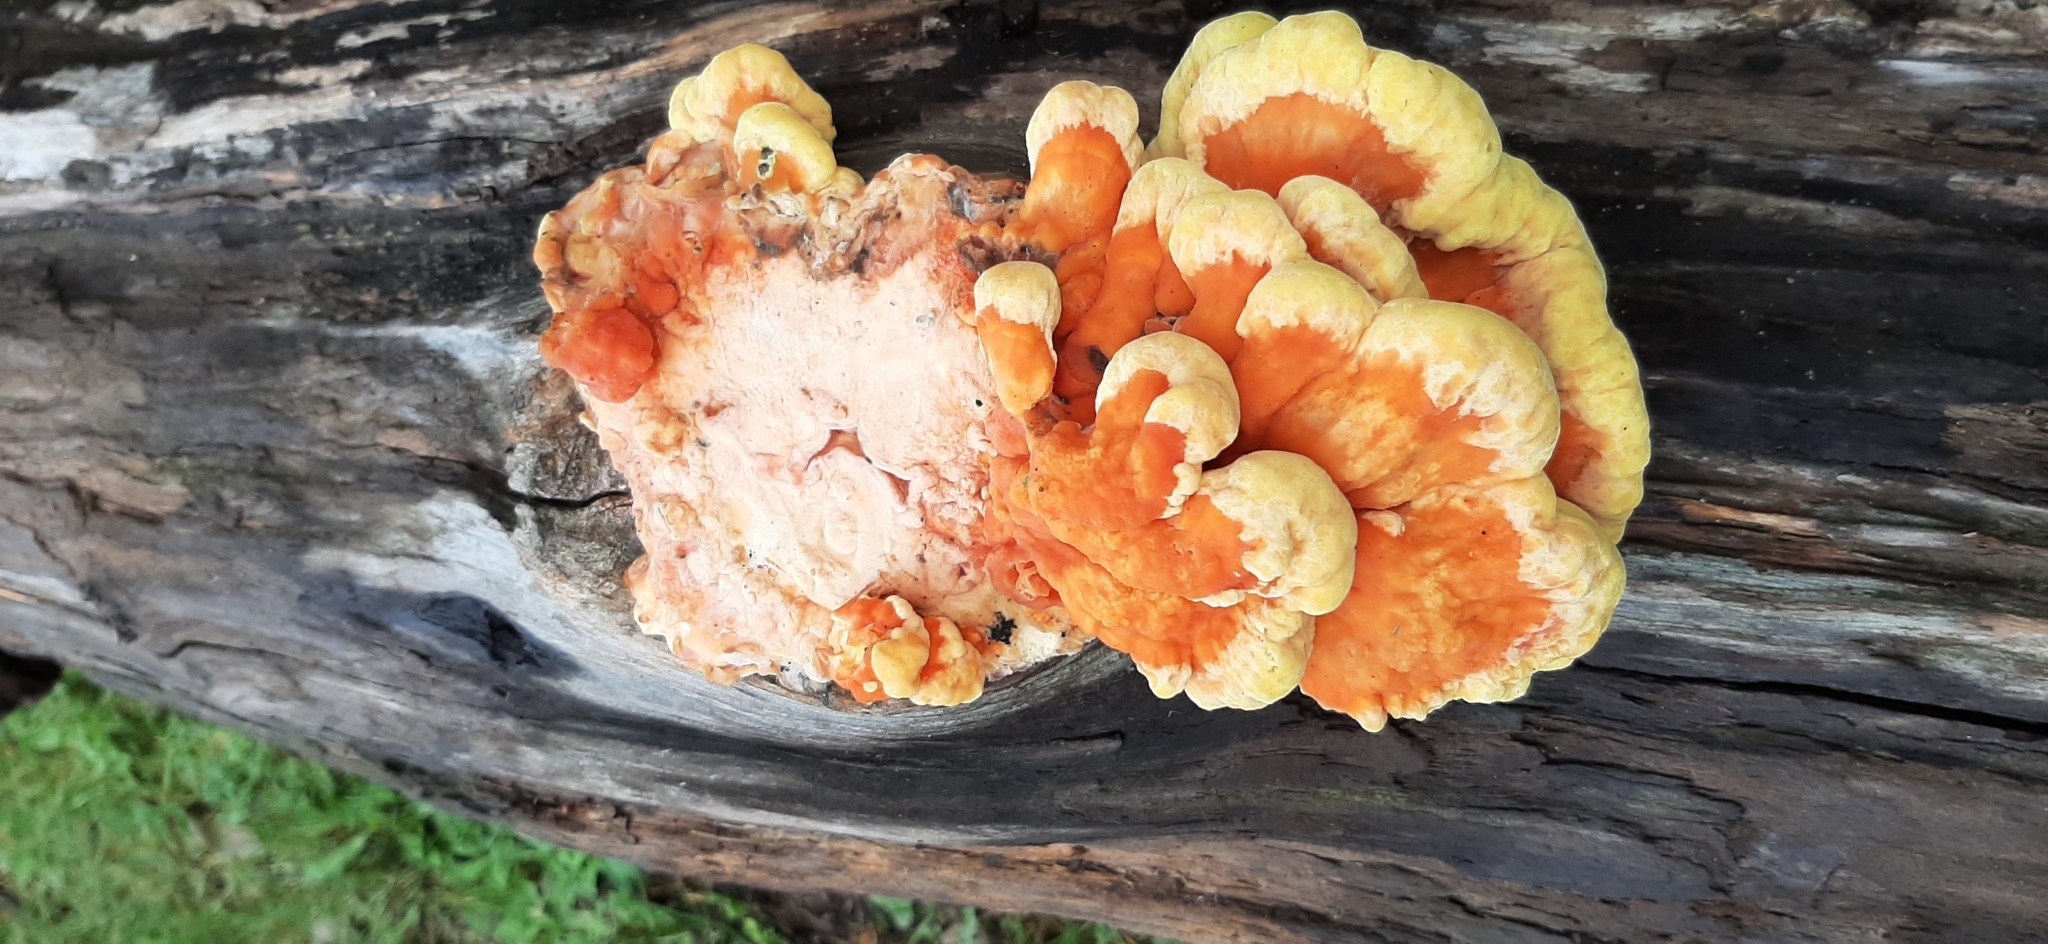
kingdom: Fungi
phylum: Basidiomycota
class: Agaricomycetes
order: Polyporales
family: Laetiporaceae
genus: Laetiporus
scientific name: Laetiporus sulphureus
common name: Chicken of the woods
